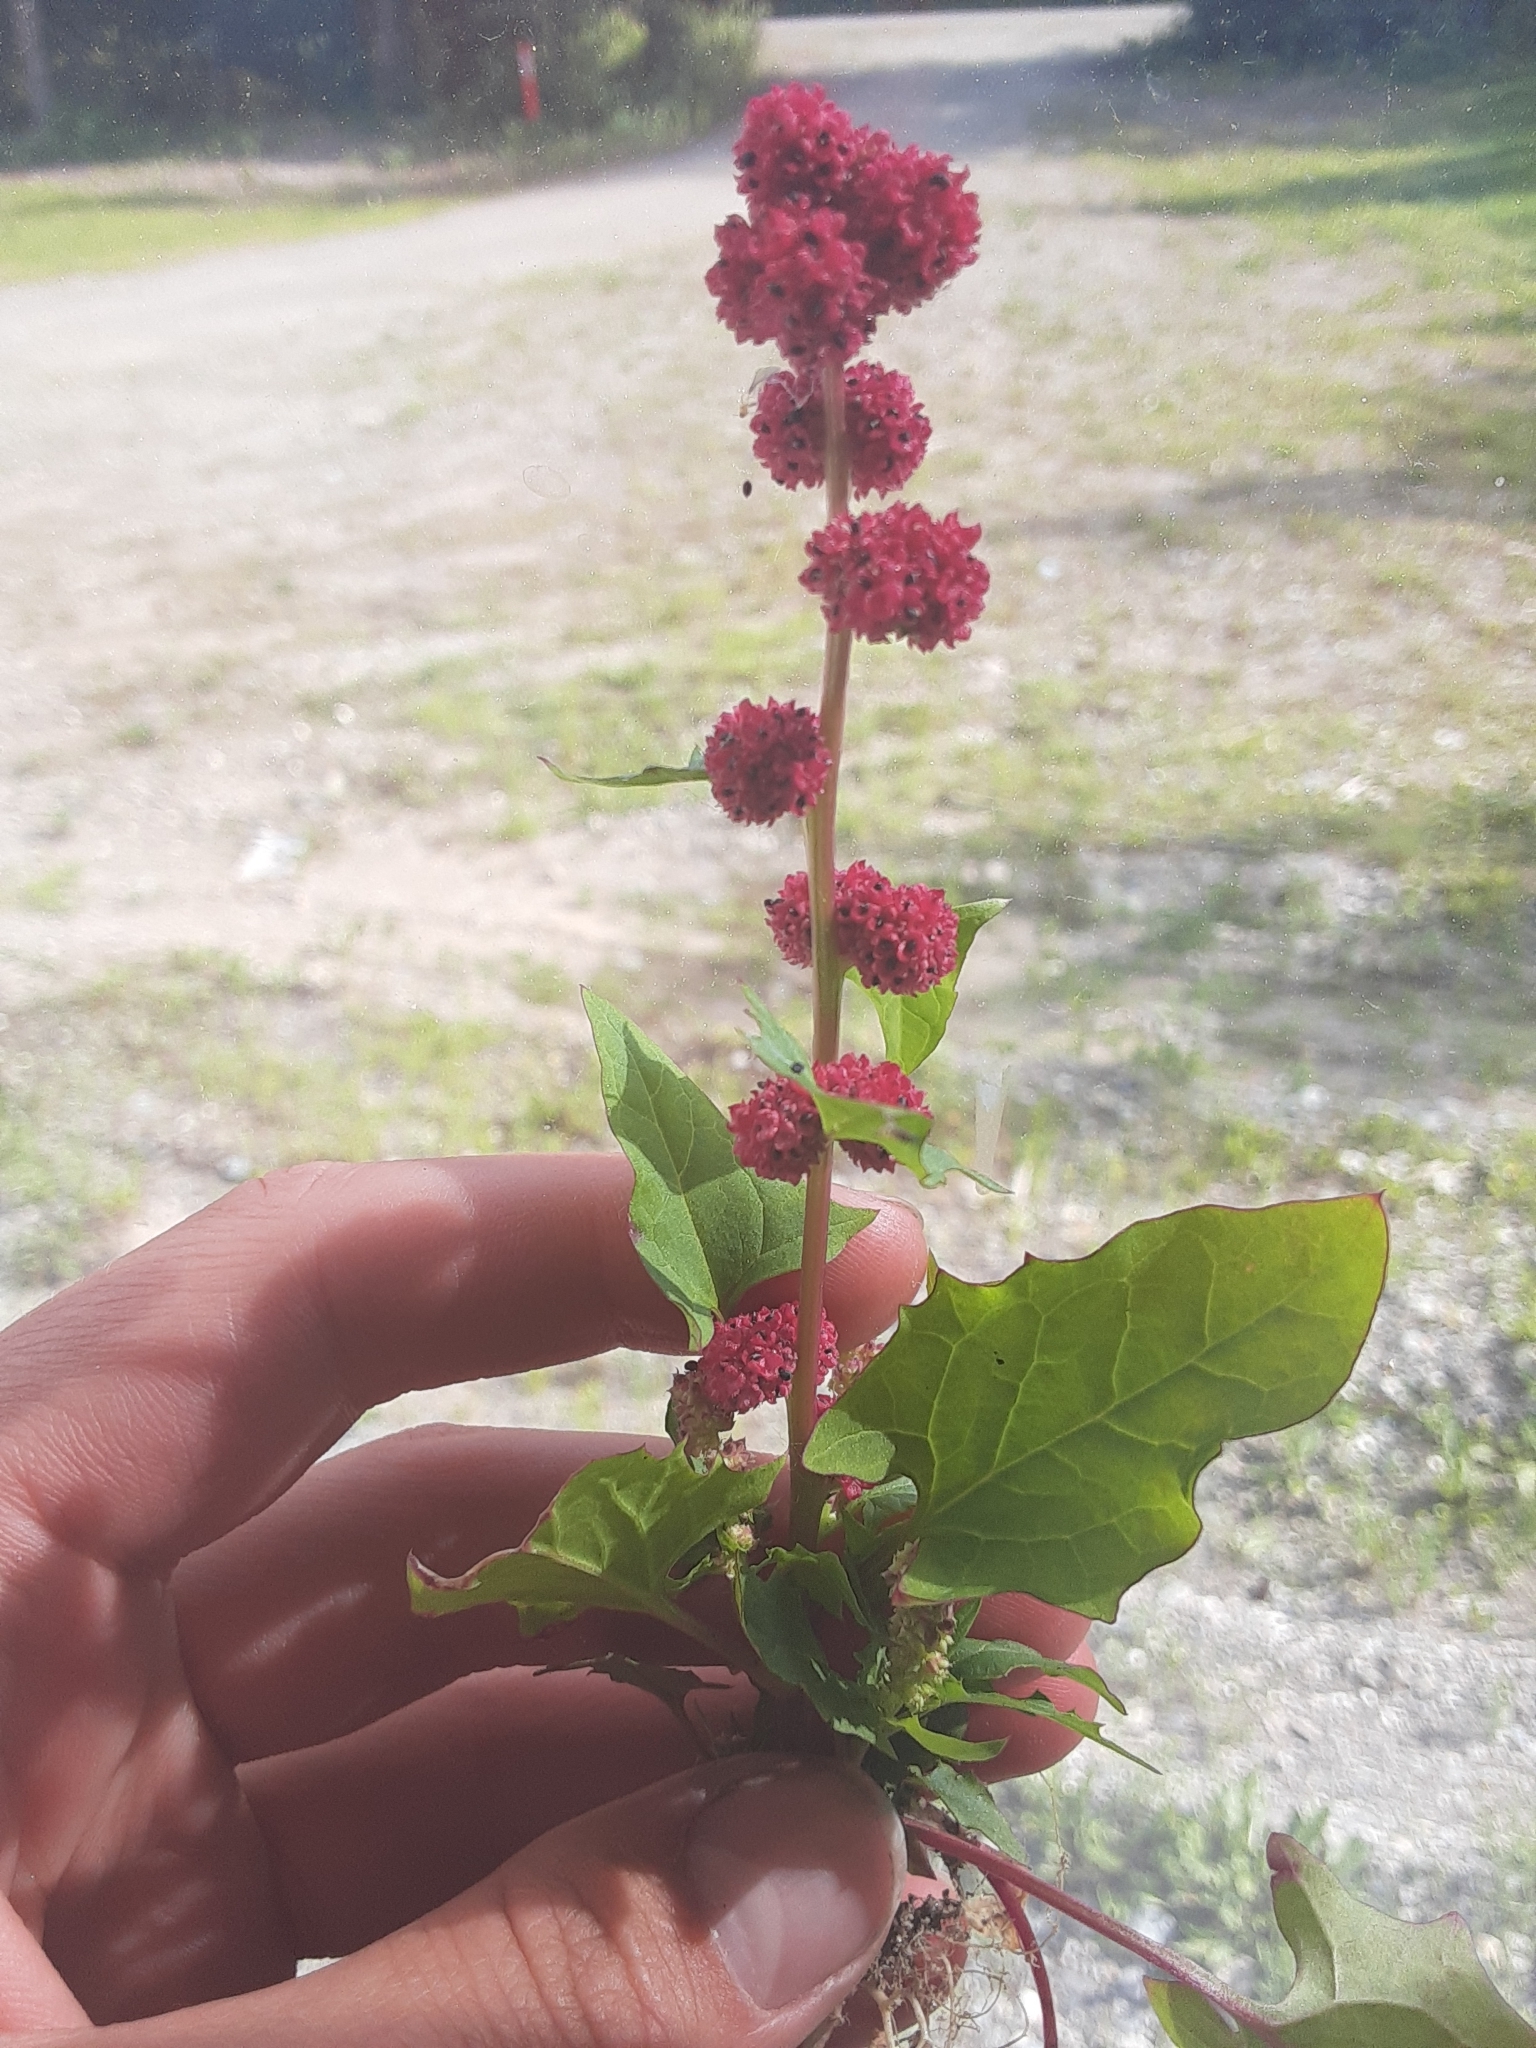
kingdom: Plantae
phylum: Tracheophyta
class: Magnoliopsida
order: Caryophyllales
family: Amaranthaceae
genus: Blitum
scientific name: Blitum capitatum
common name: Strawberry-blight
